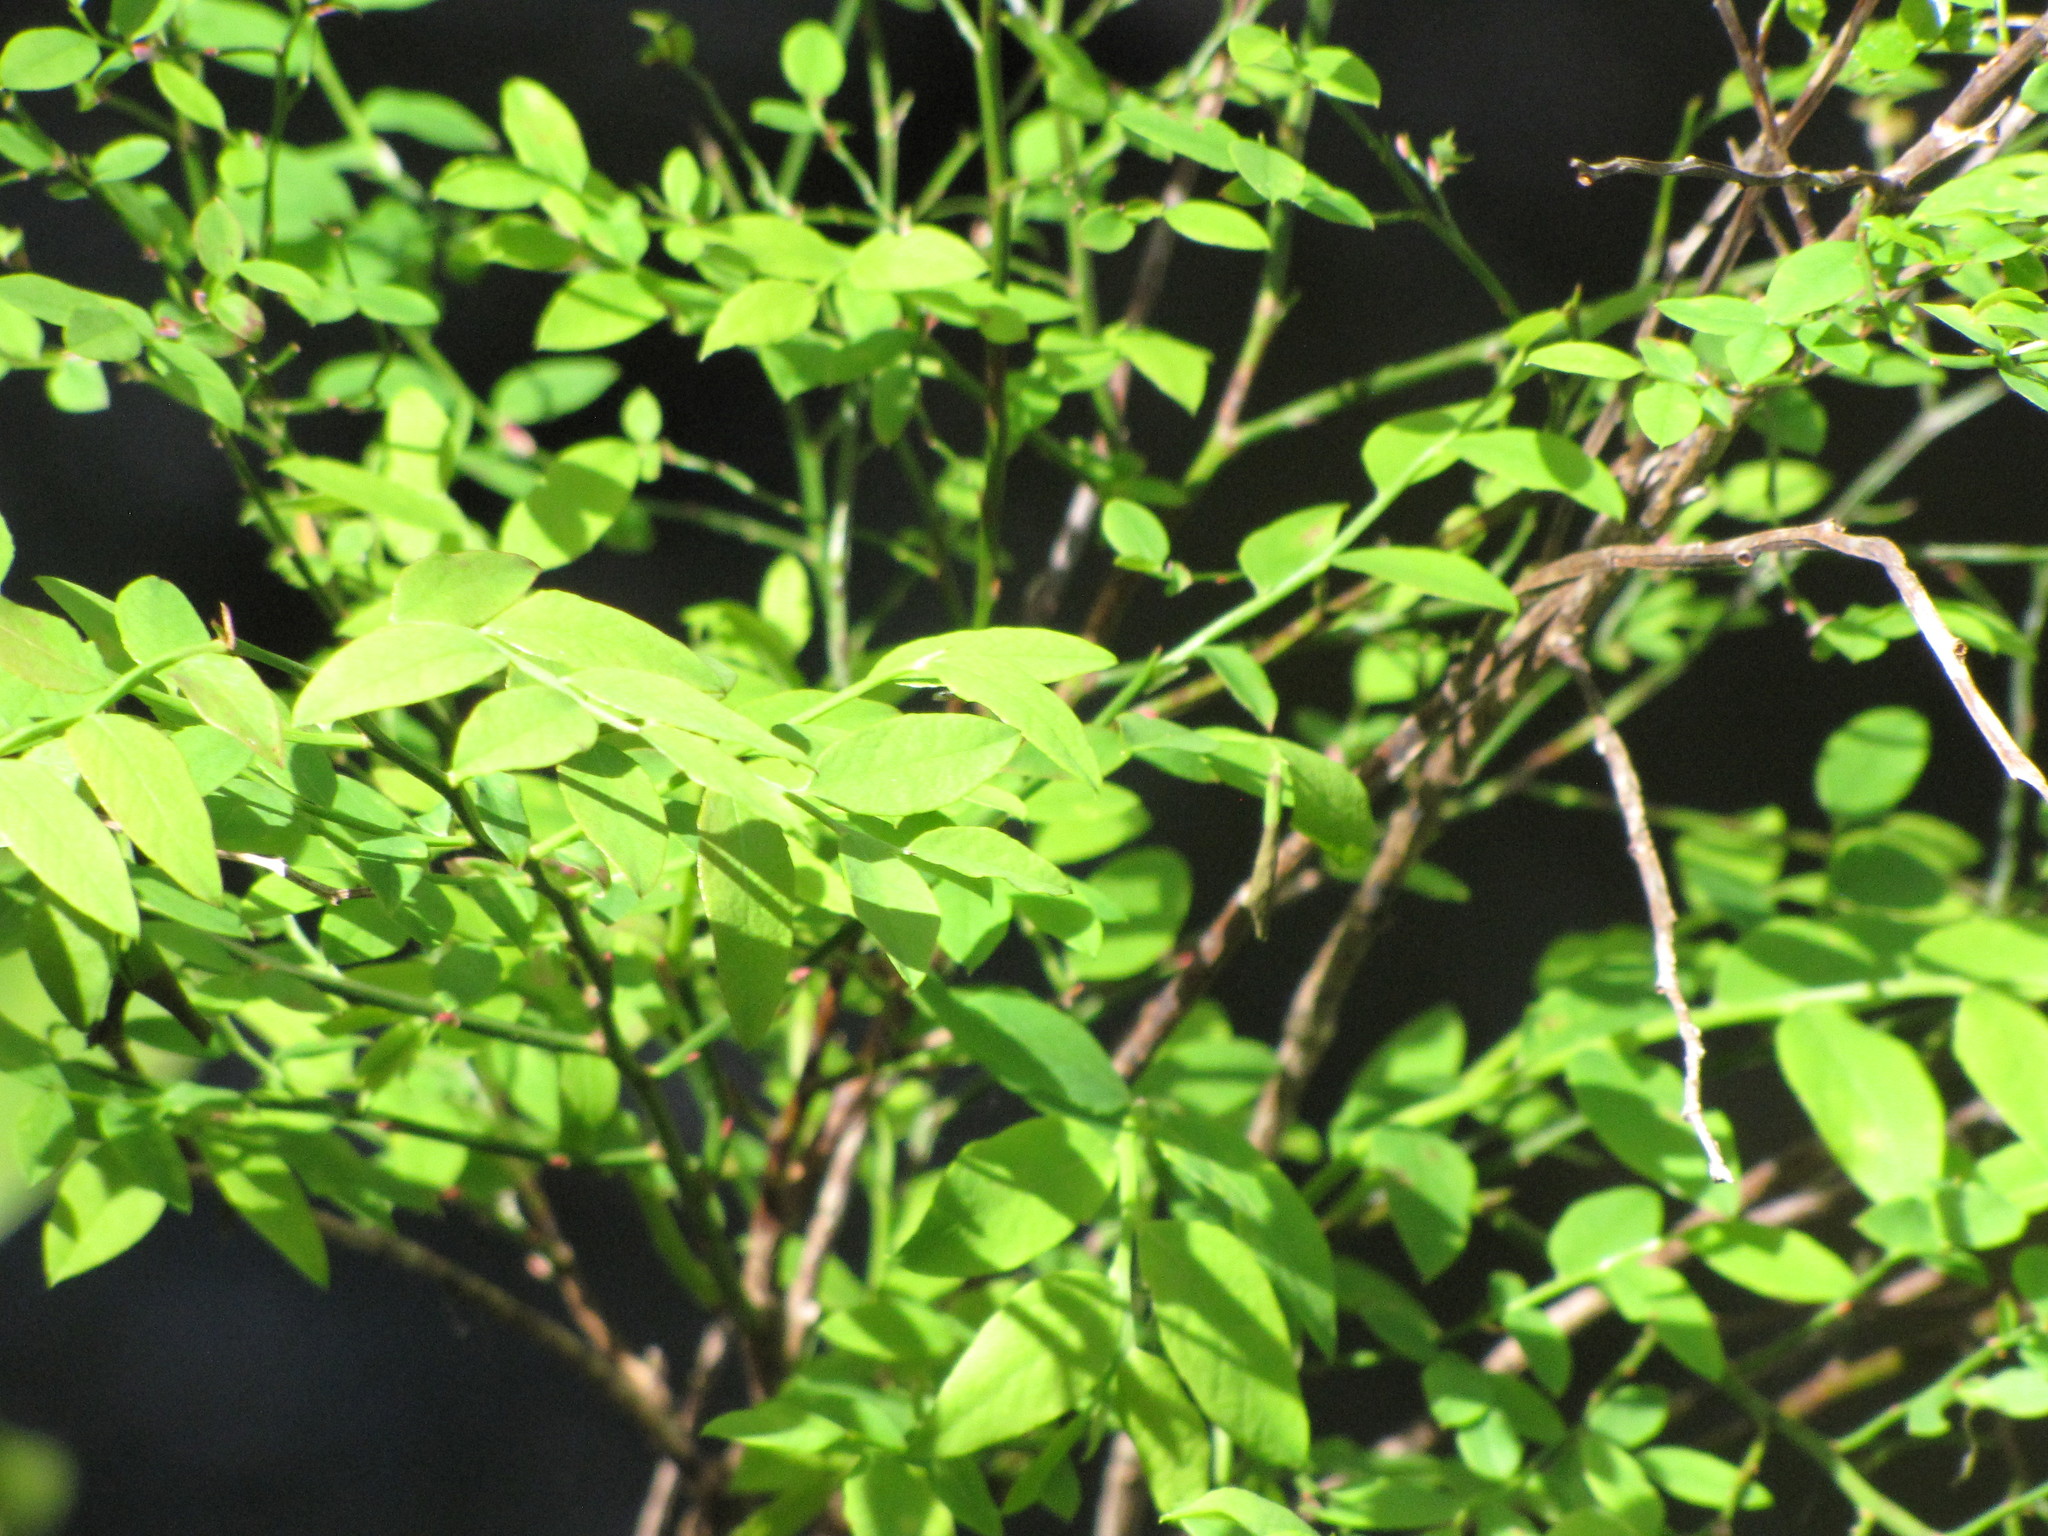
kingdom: Plantae
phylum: Tracheophyta
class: Magnoliopsida
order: Ericales
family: Ericaceae
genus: Vaccinium
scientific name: Vaccinium parvifolium
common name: Red-huckleberry
